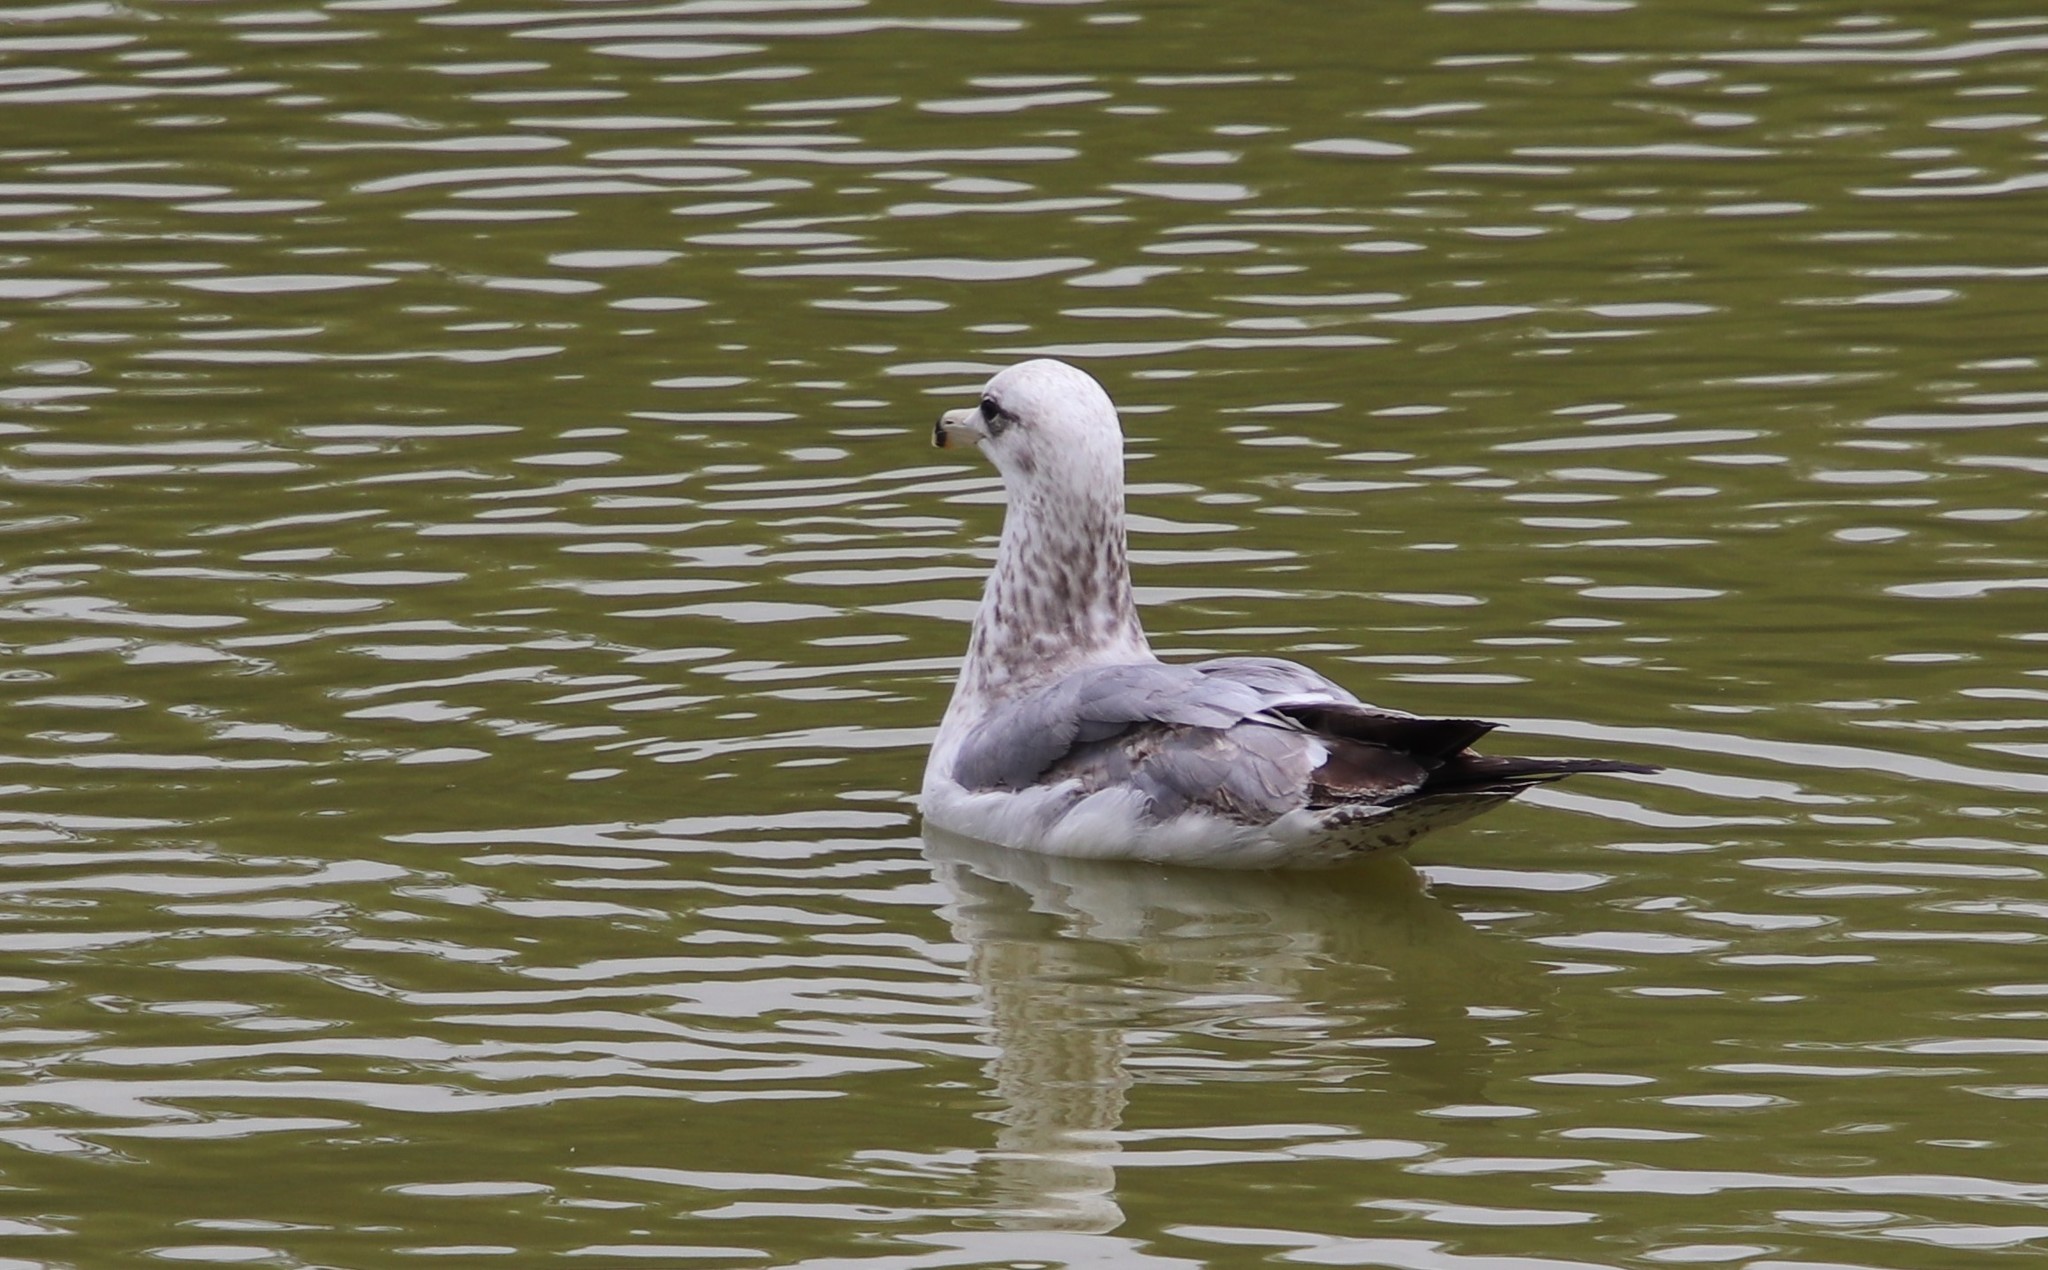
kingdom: Animalia
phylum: Chordata
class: Aves
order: Charadriiformes
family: Laridae
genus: Larus
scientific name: Larus californicus
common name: California gull
